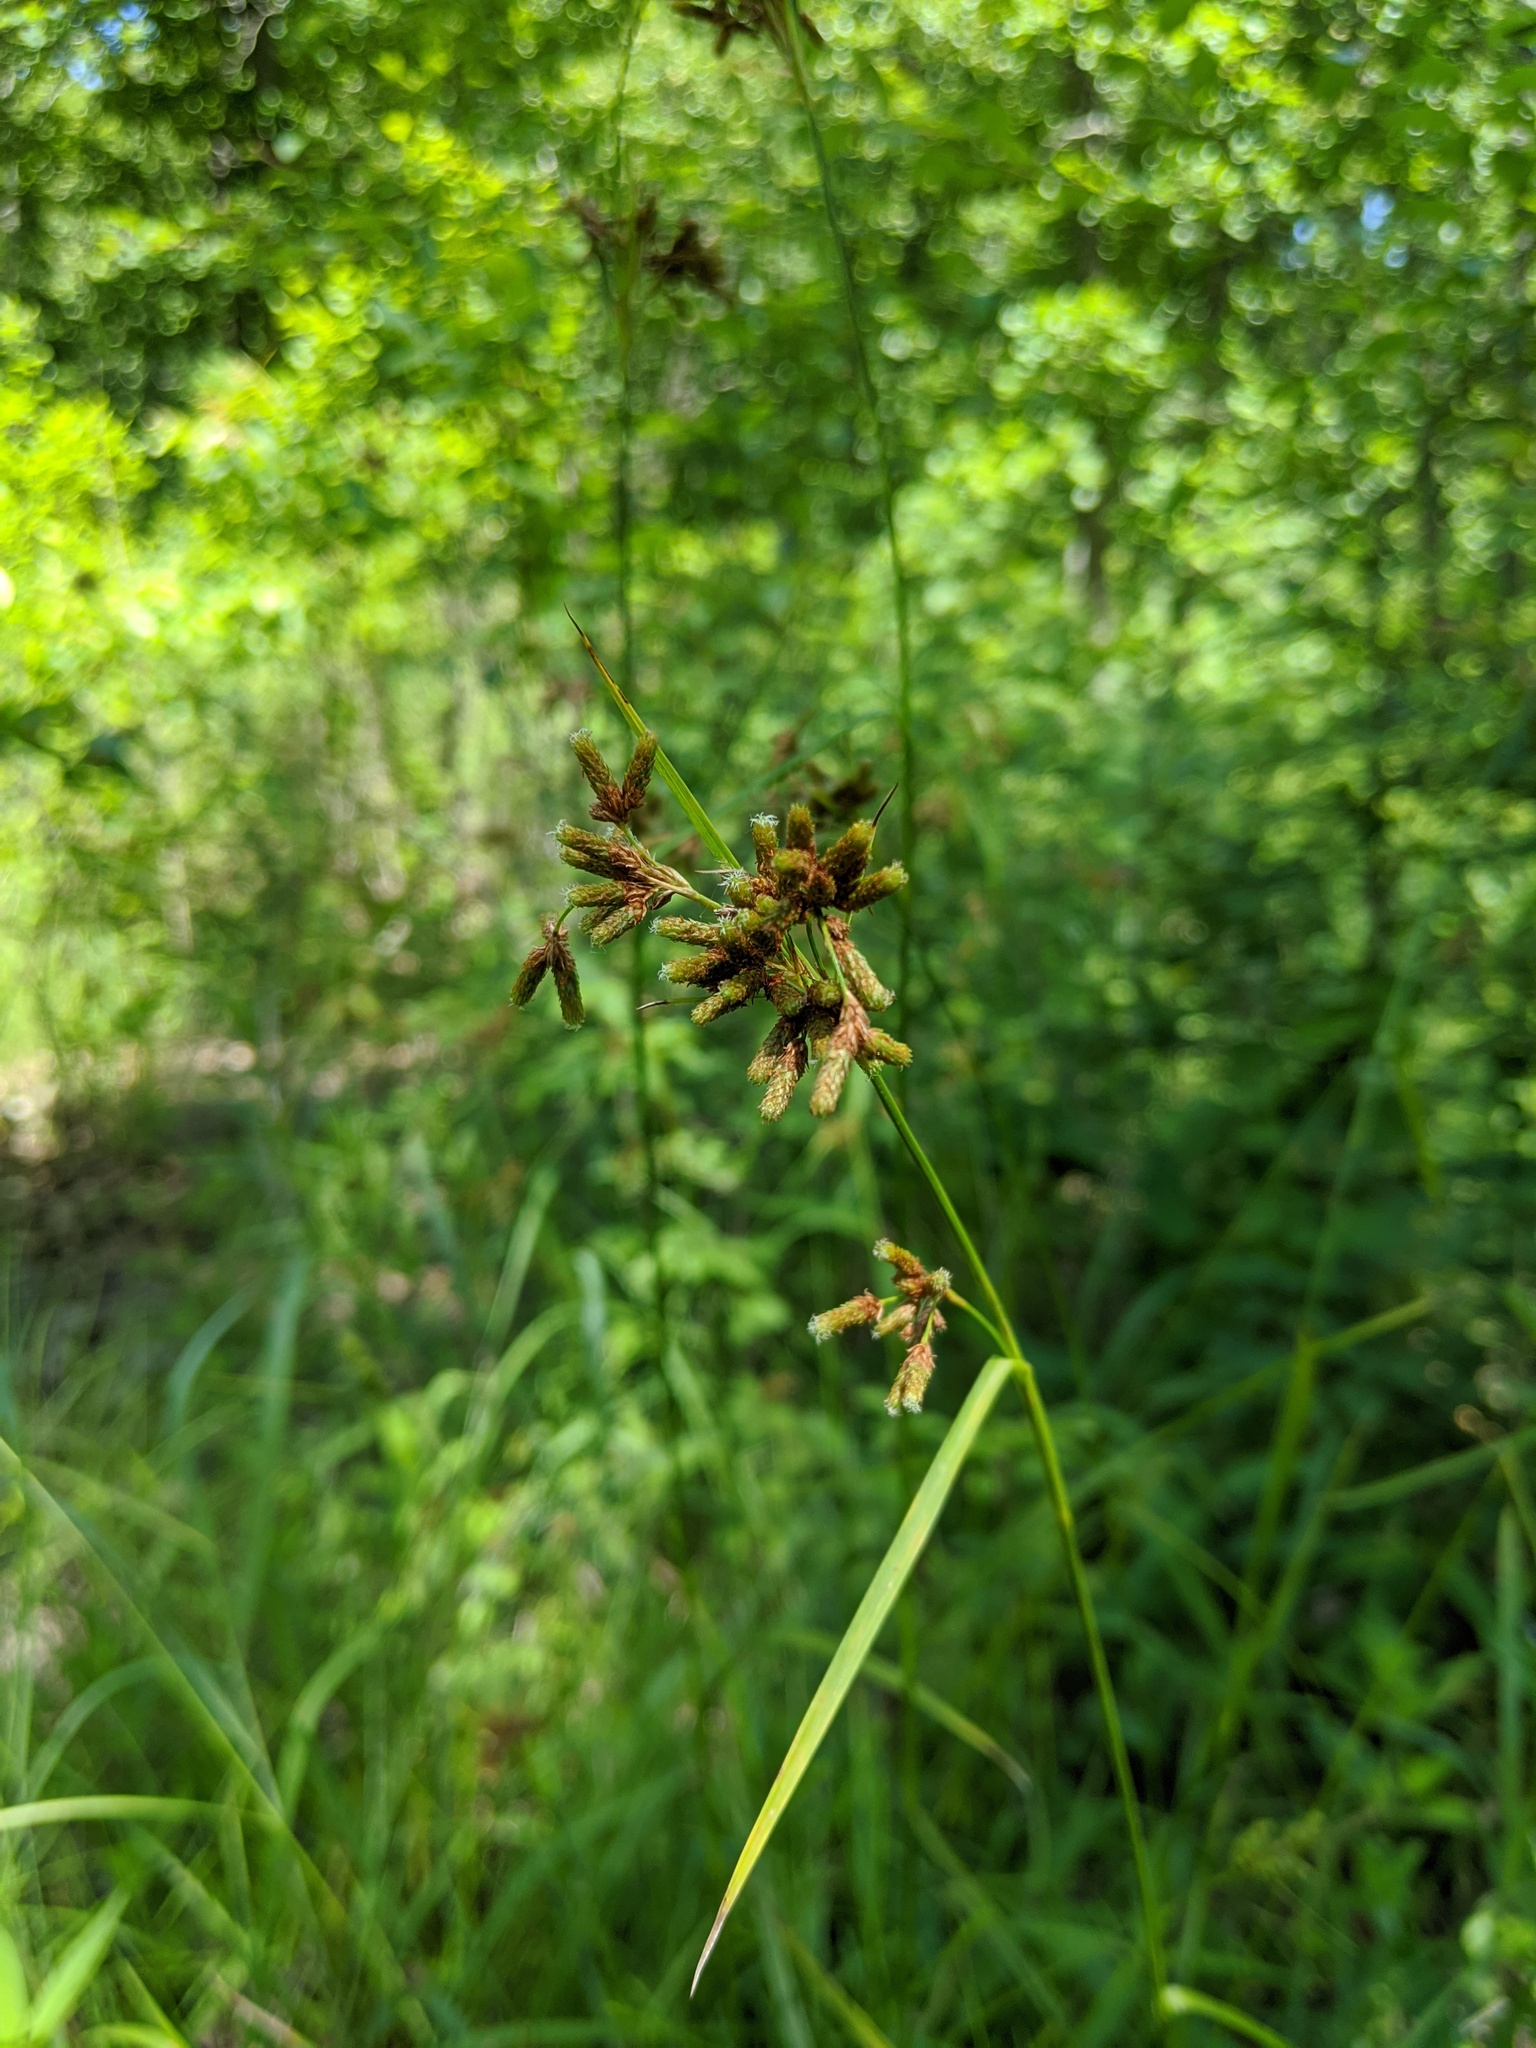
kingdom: Plantae
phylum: Tracheophyta
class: Liliopsida
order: Poales
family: Cyperaceae
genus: Scirpus
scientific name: Scirpus pendulus
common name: Nodding bulrush
